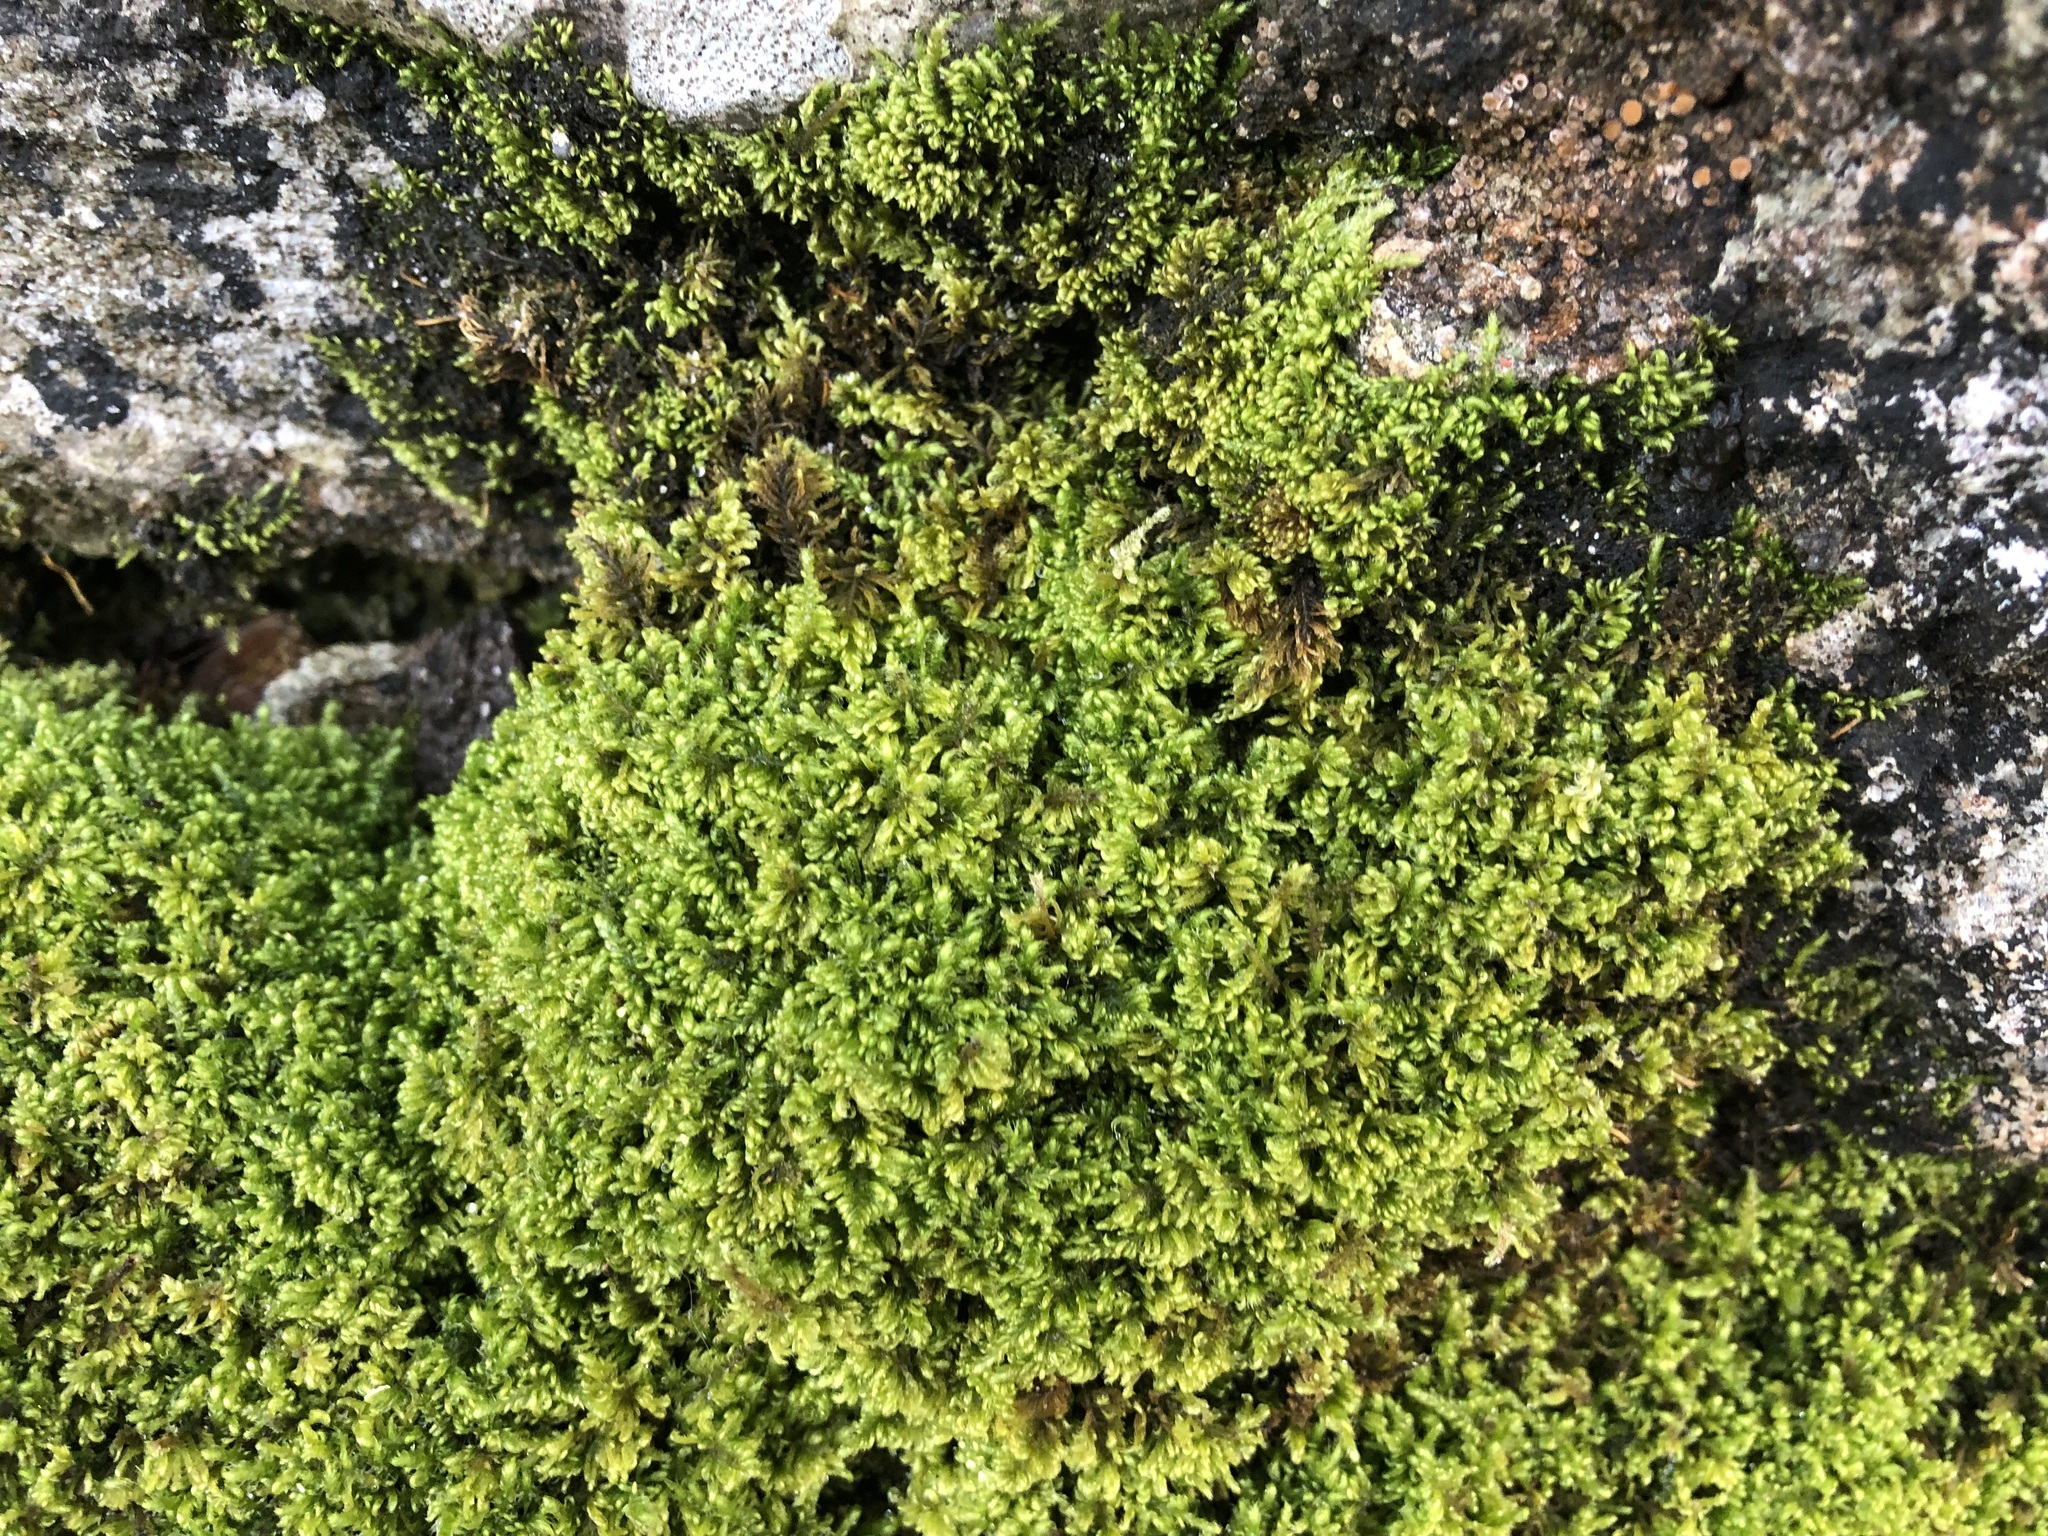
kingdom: Plantae
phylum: Bryophyta
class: Bryopsida
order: Hypnales
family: Myuriaceae
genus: Ctenidium
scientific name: Ctenidium molluscum
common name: Chalk comb-moss
